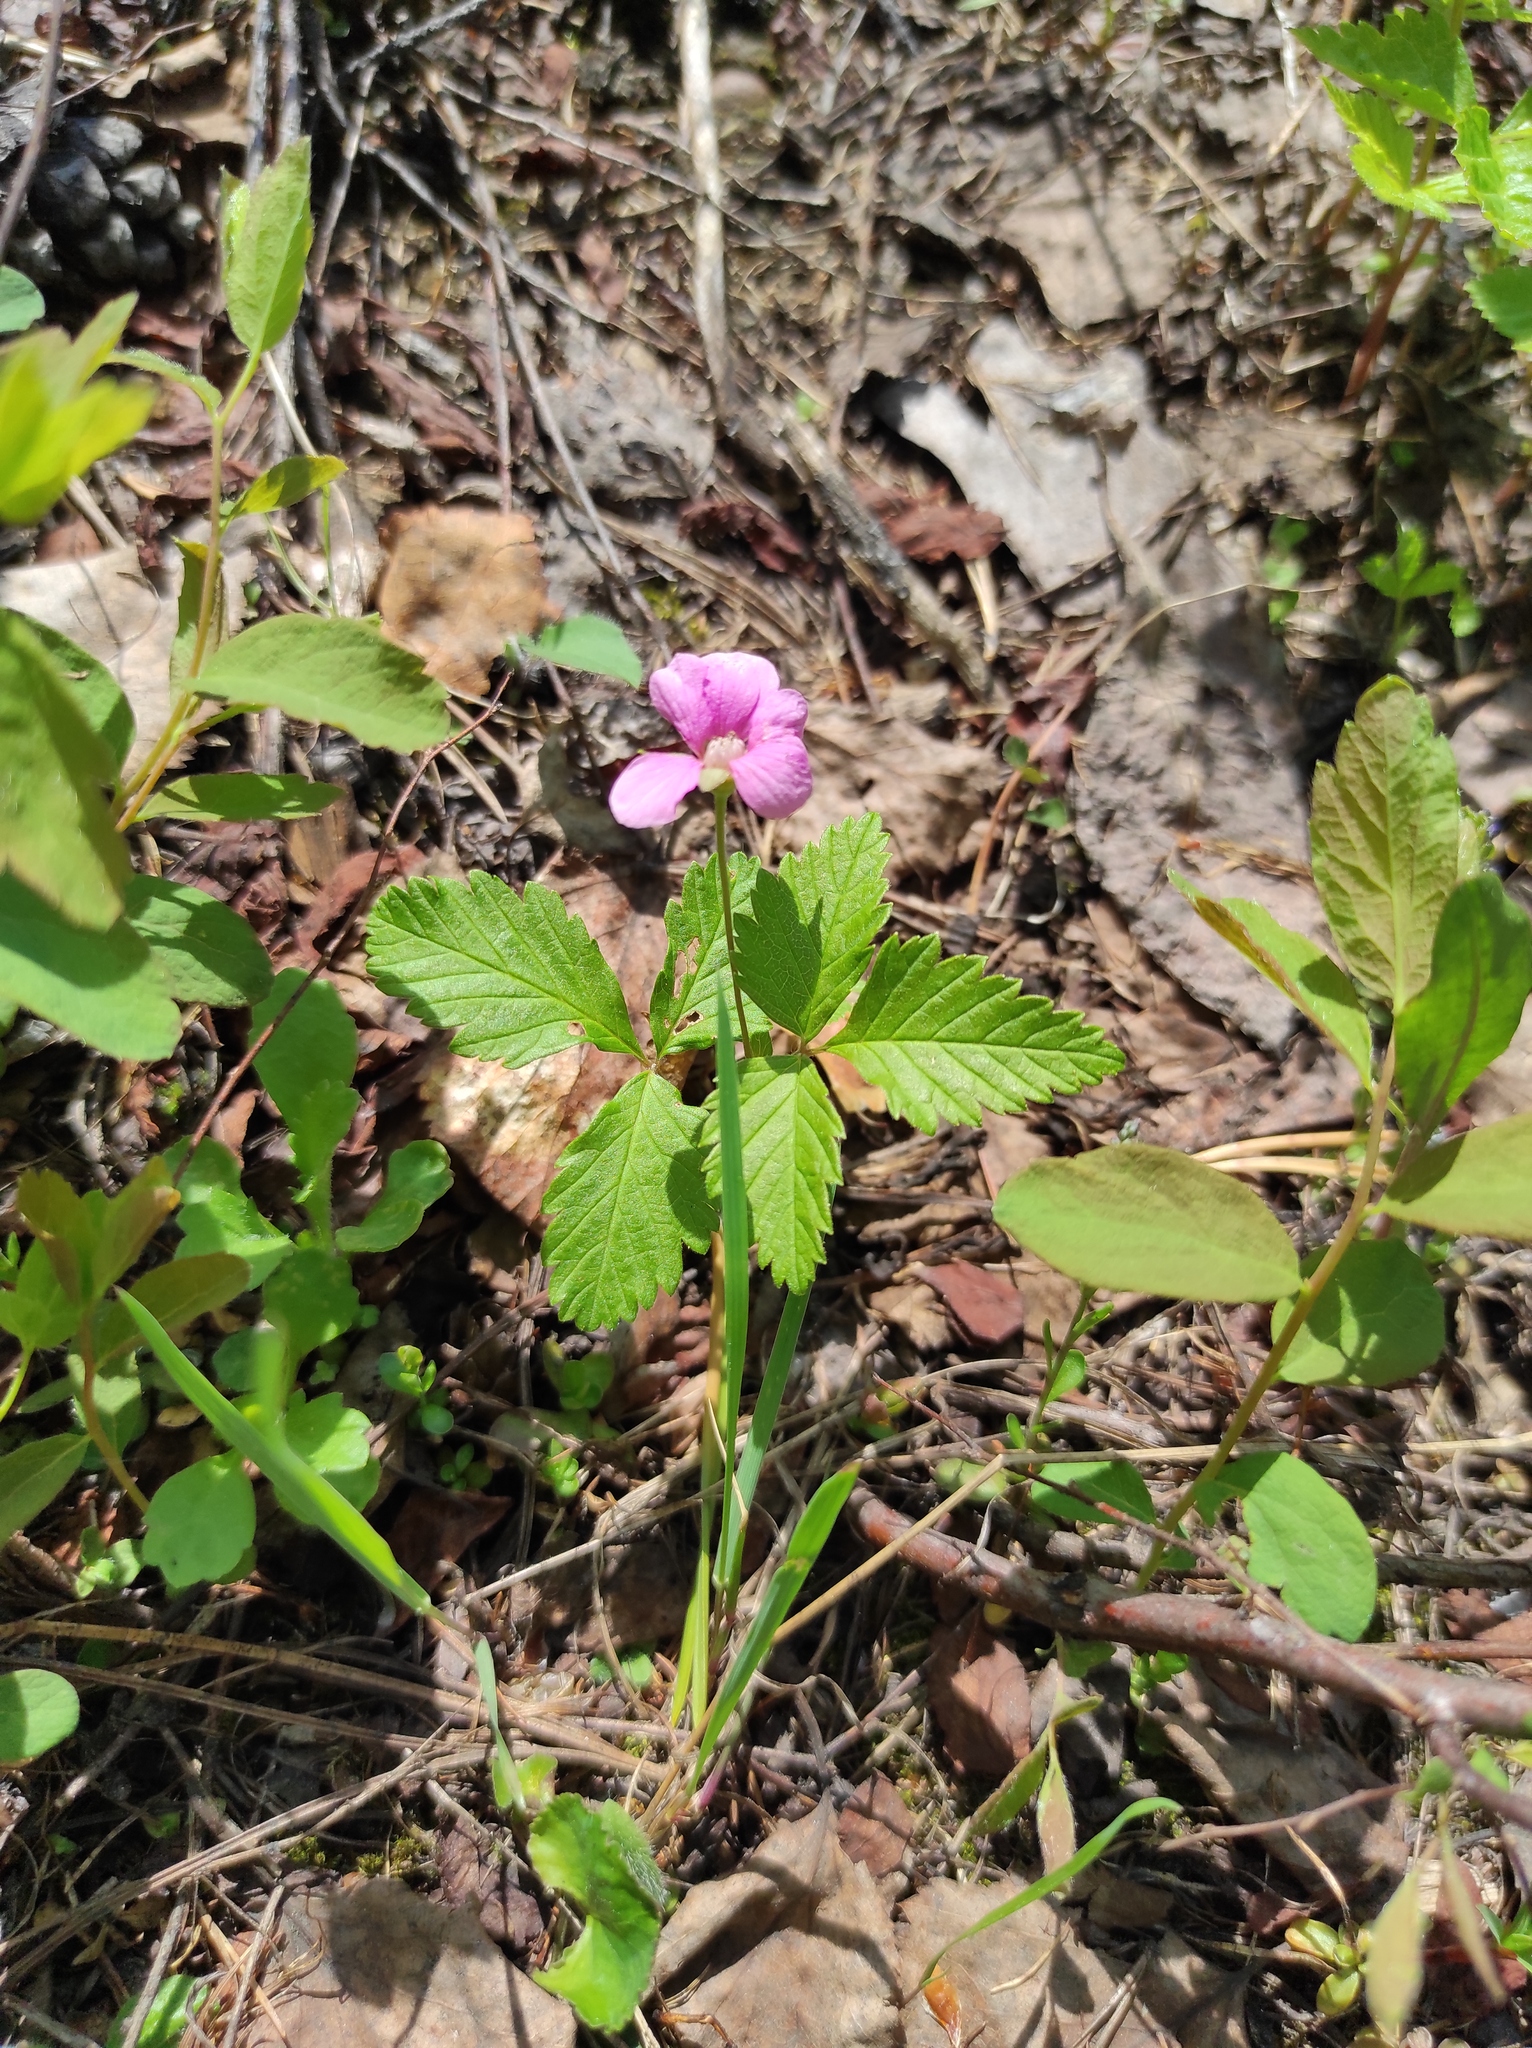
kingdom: Plantae
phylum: Tracheophyta
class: Magnoliopsida
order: Rosales
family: Rosaceae
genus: Rubus
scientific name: Rubus arcticus
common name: Arctic bramble
